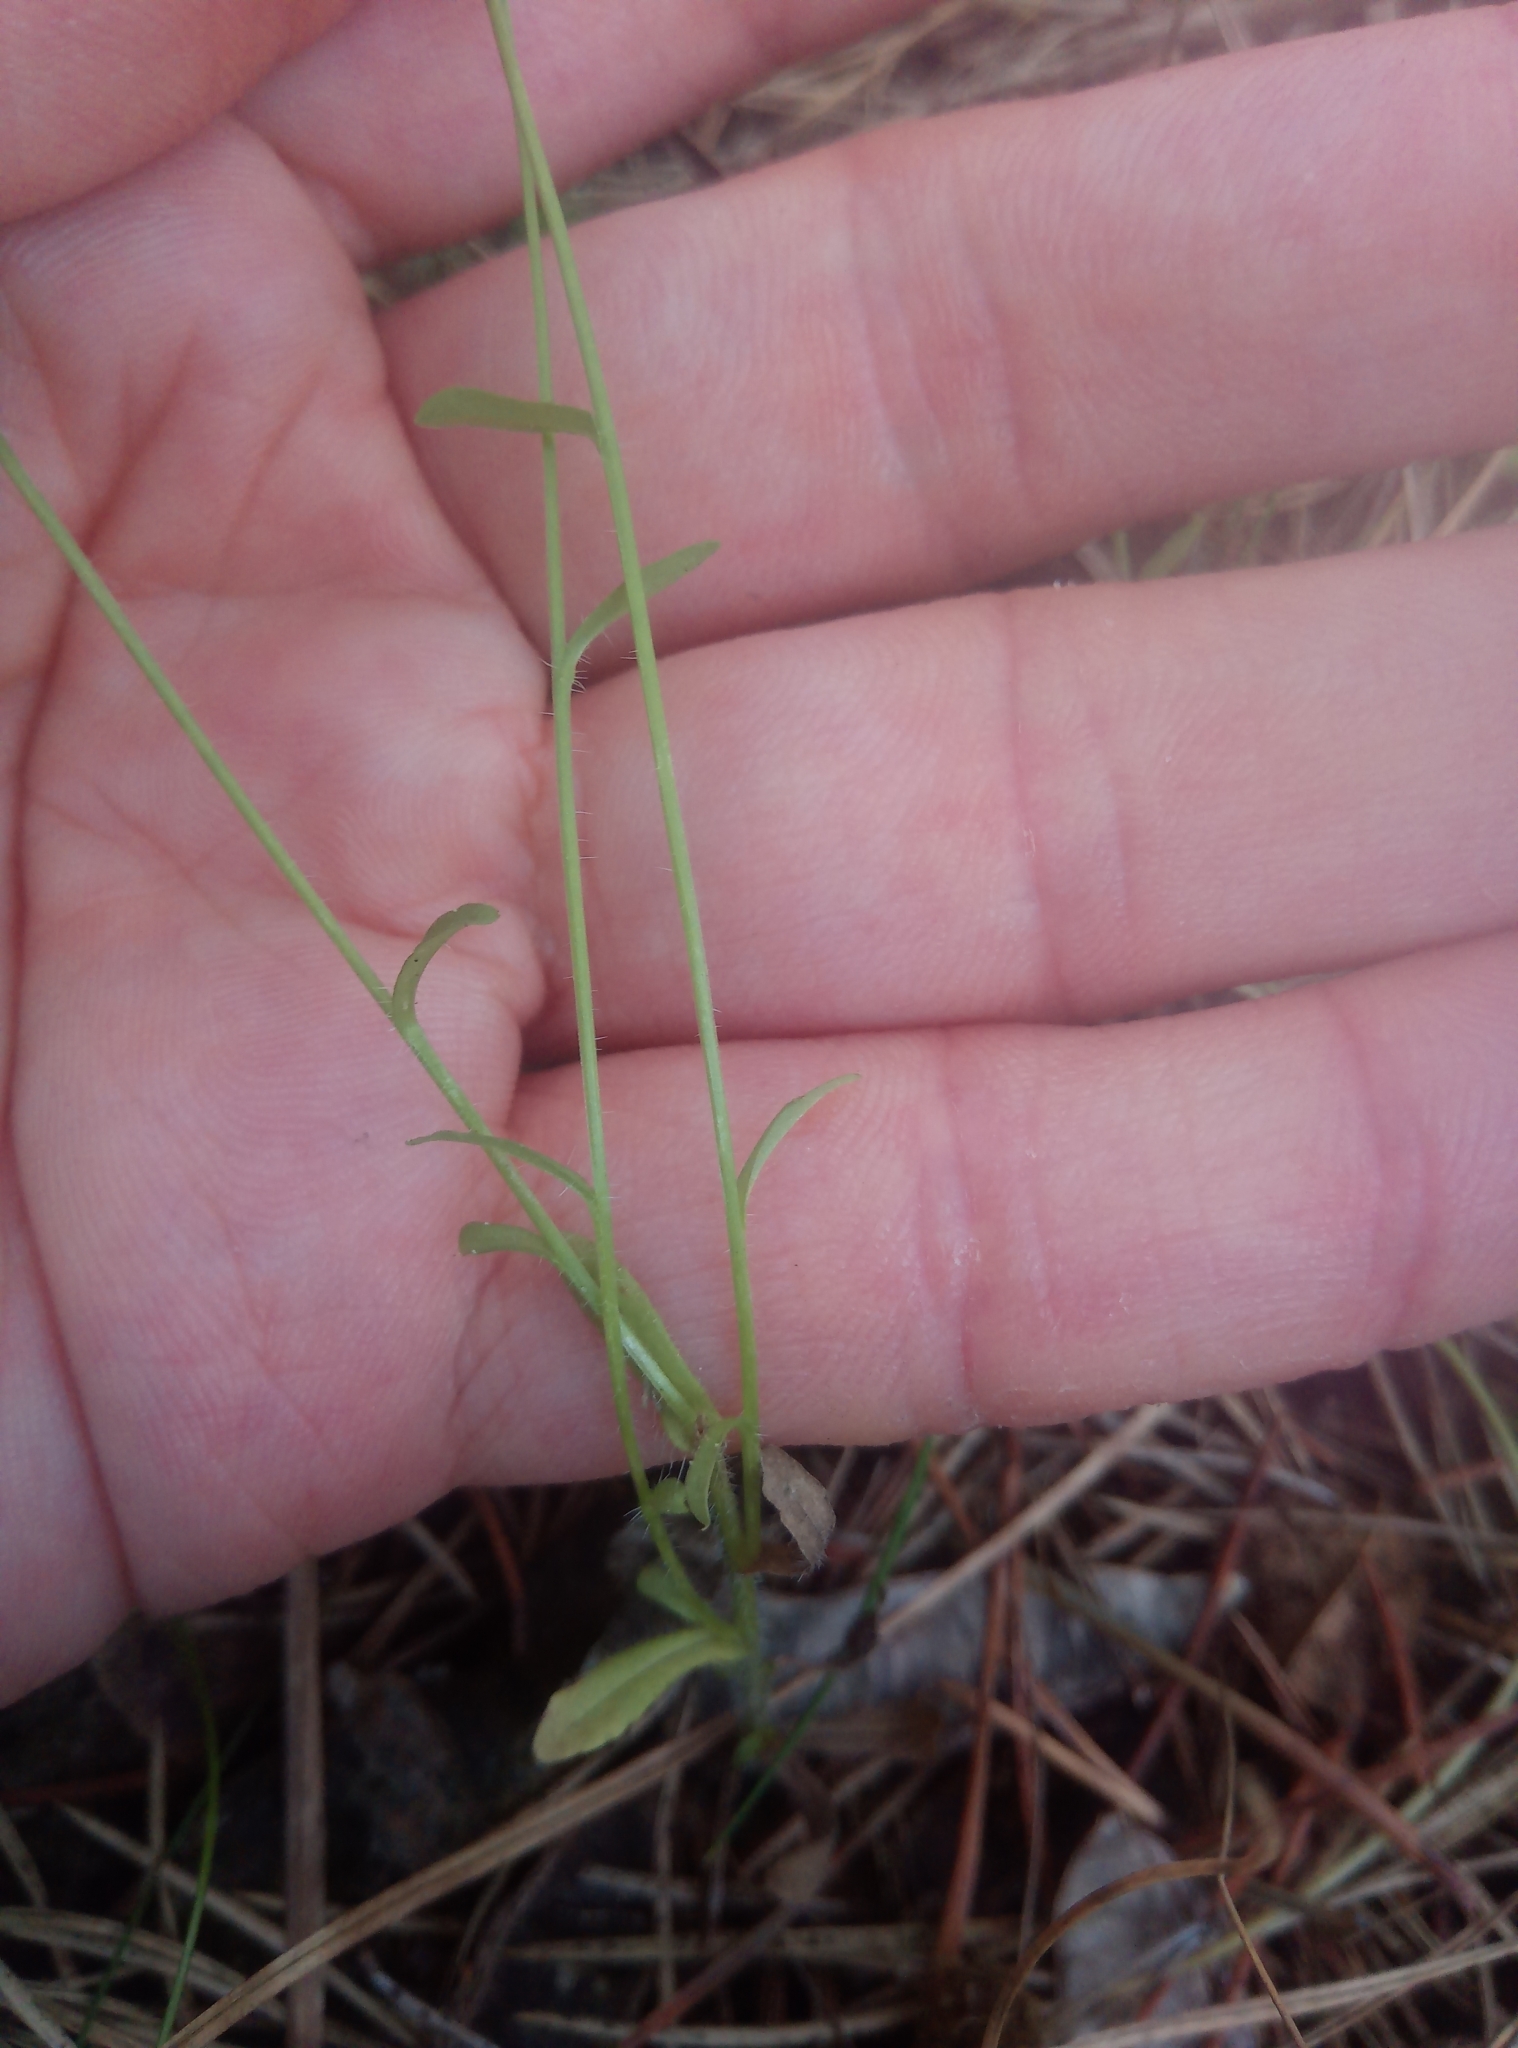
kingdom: Plantae
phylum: Tracheophyta
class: Magnoliopsida
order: Asterales
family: Campanulaceae
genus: Jasione
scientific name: Jasione montana
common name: Sheep's-bit
